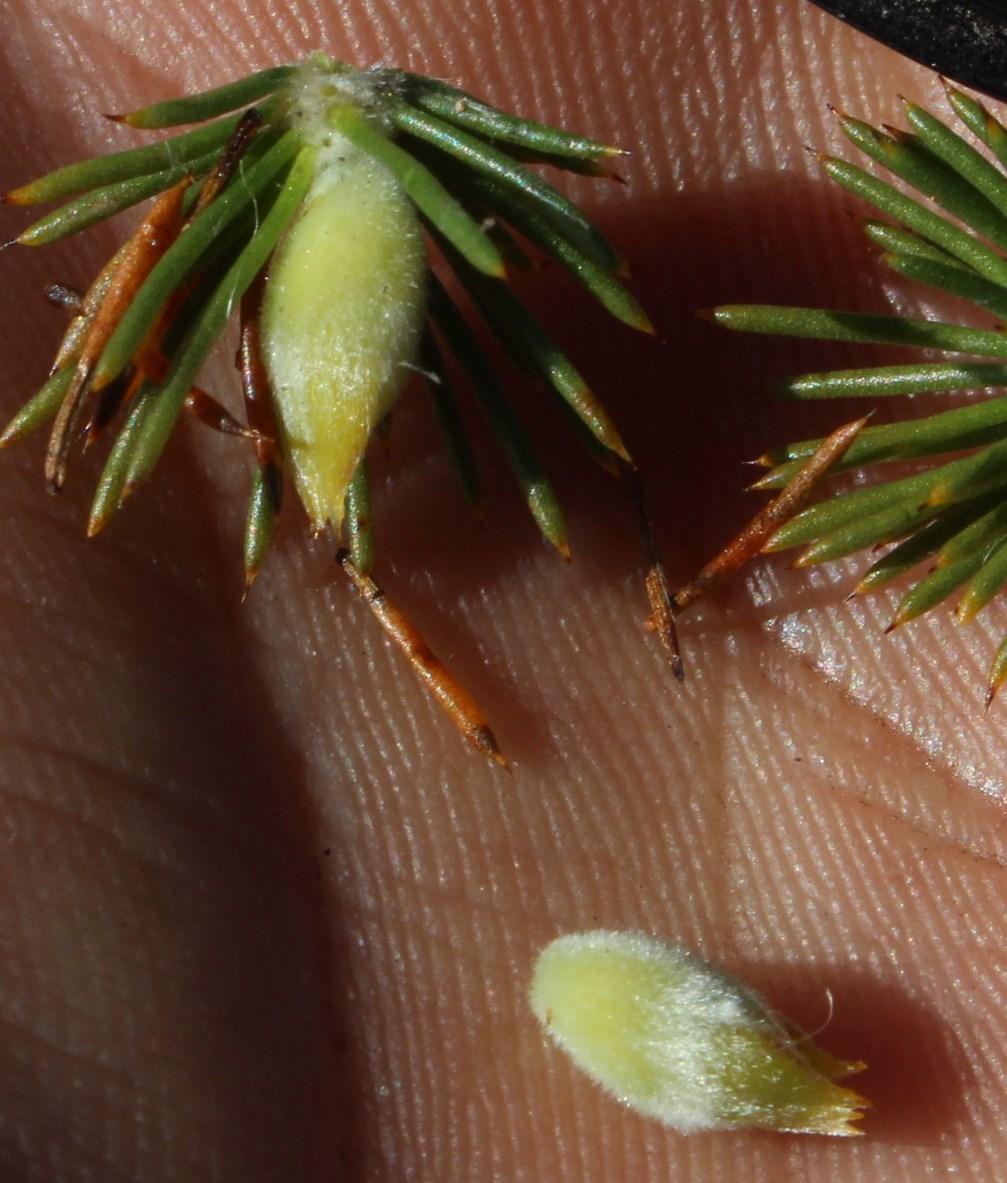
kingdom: Plantae
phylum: Tracheophyta
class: Magnoliopsida
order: Fabales
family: Fabaceae
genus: Aspalathus
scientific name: Aspalathus sceptrumaureum
